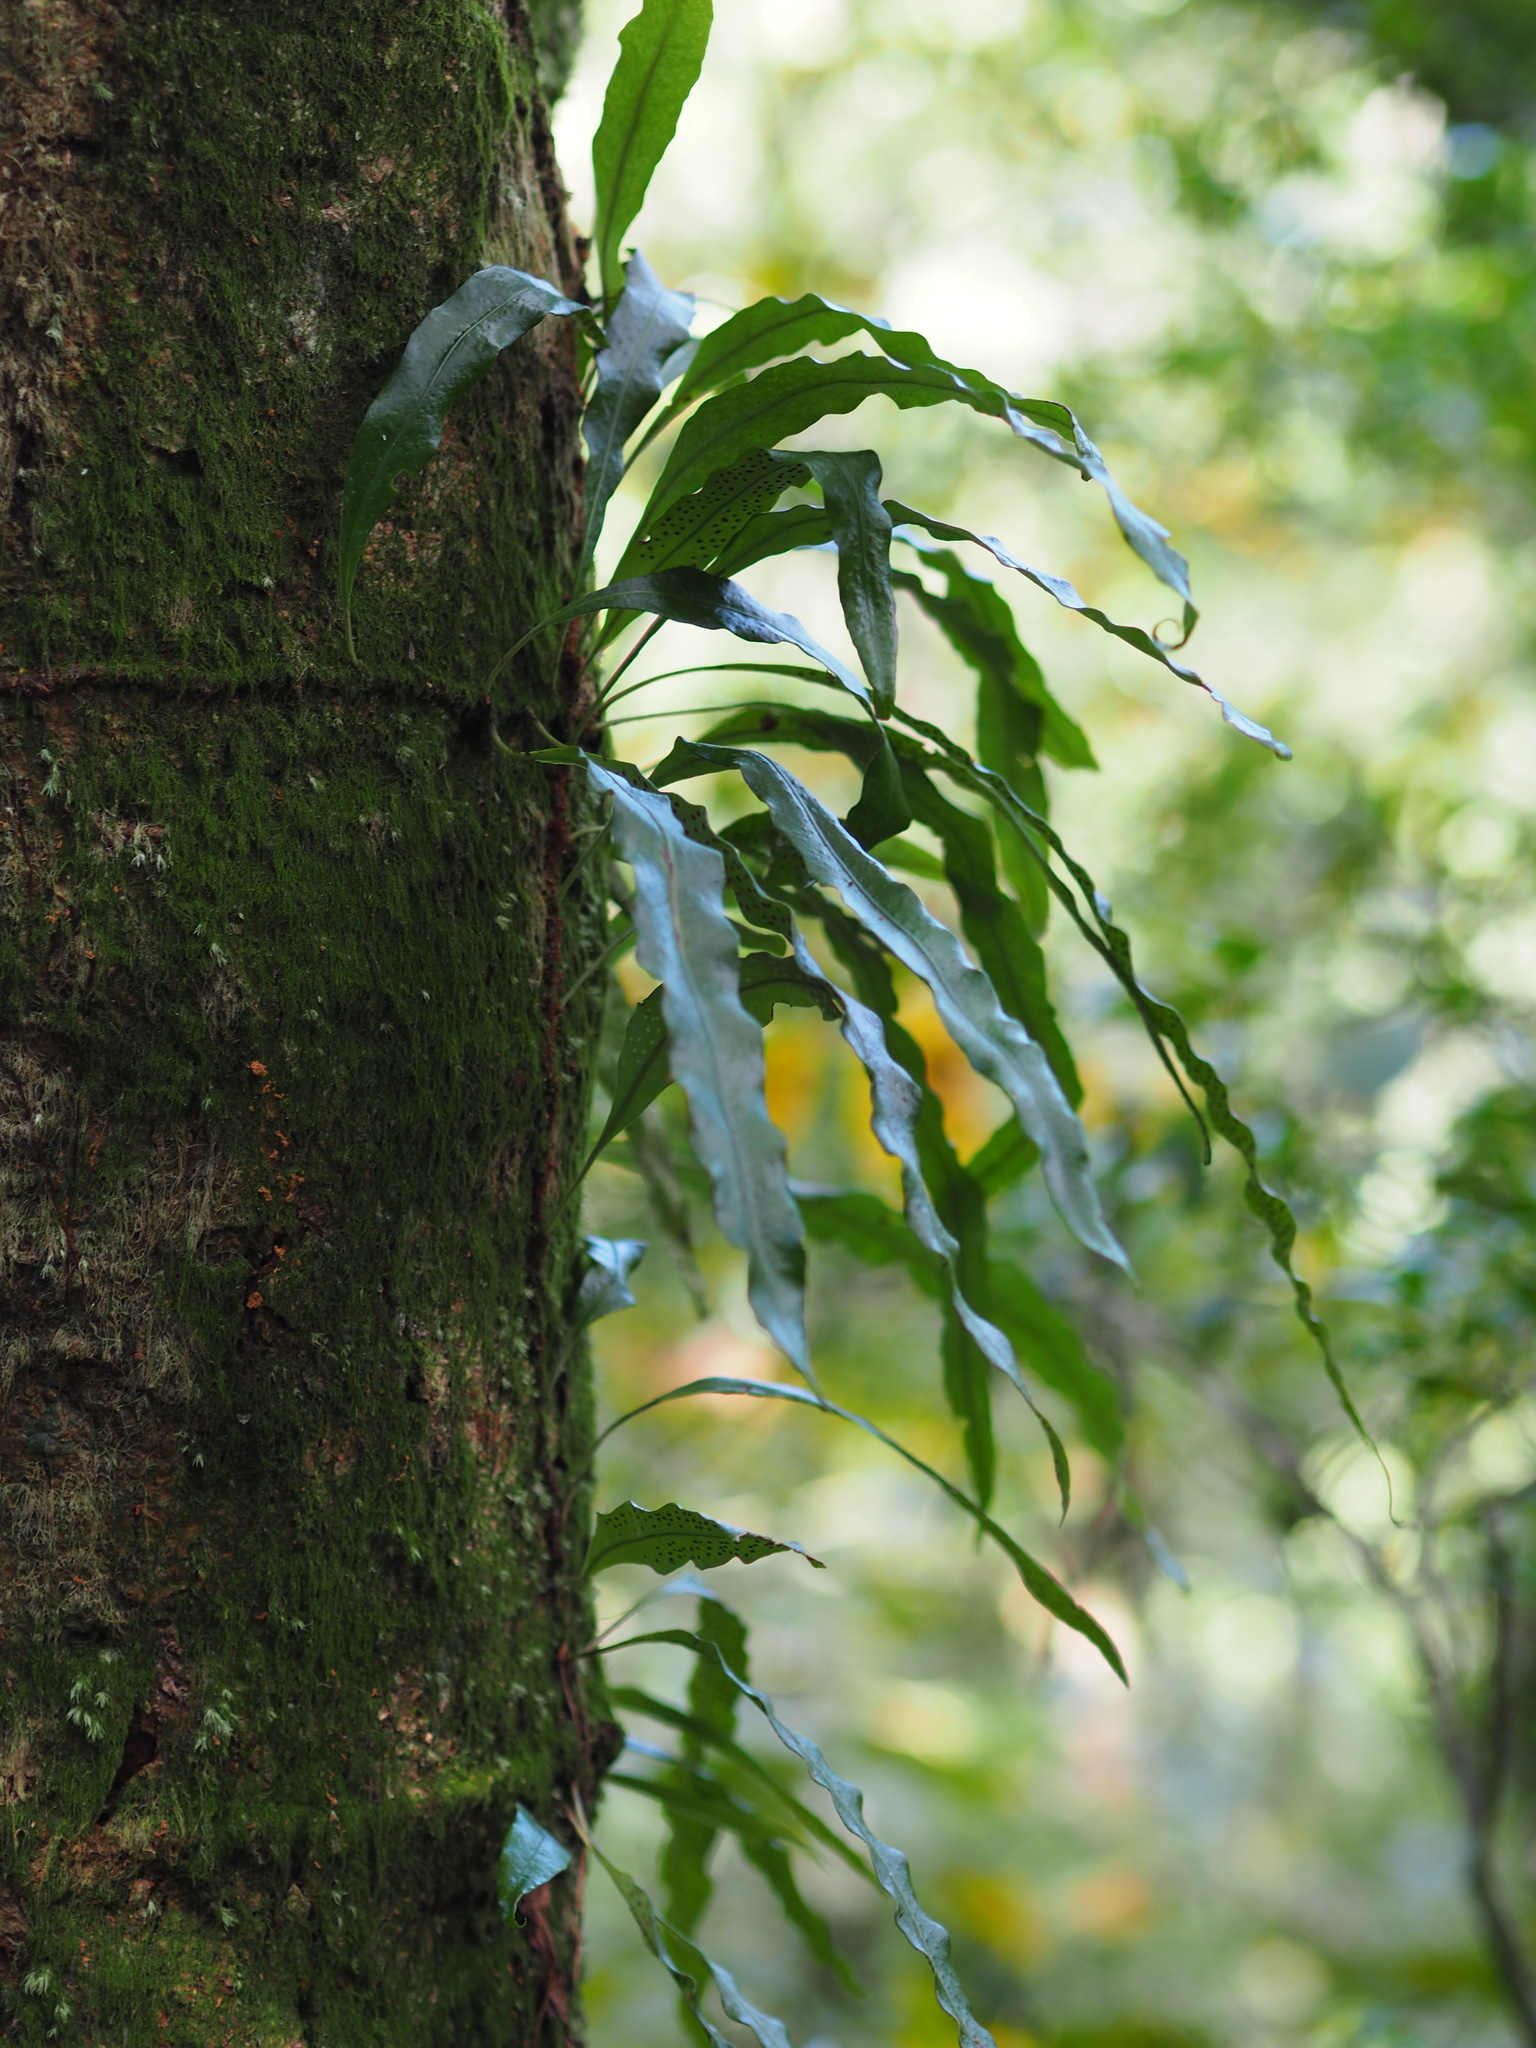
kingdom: Plantae
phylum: Tracheophyta
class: Polypodiopsida
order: Polypodiales
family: Polypodiaceae
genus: Lepisorus
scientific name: Lepisorus superficialis
